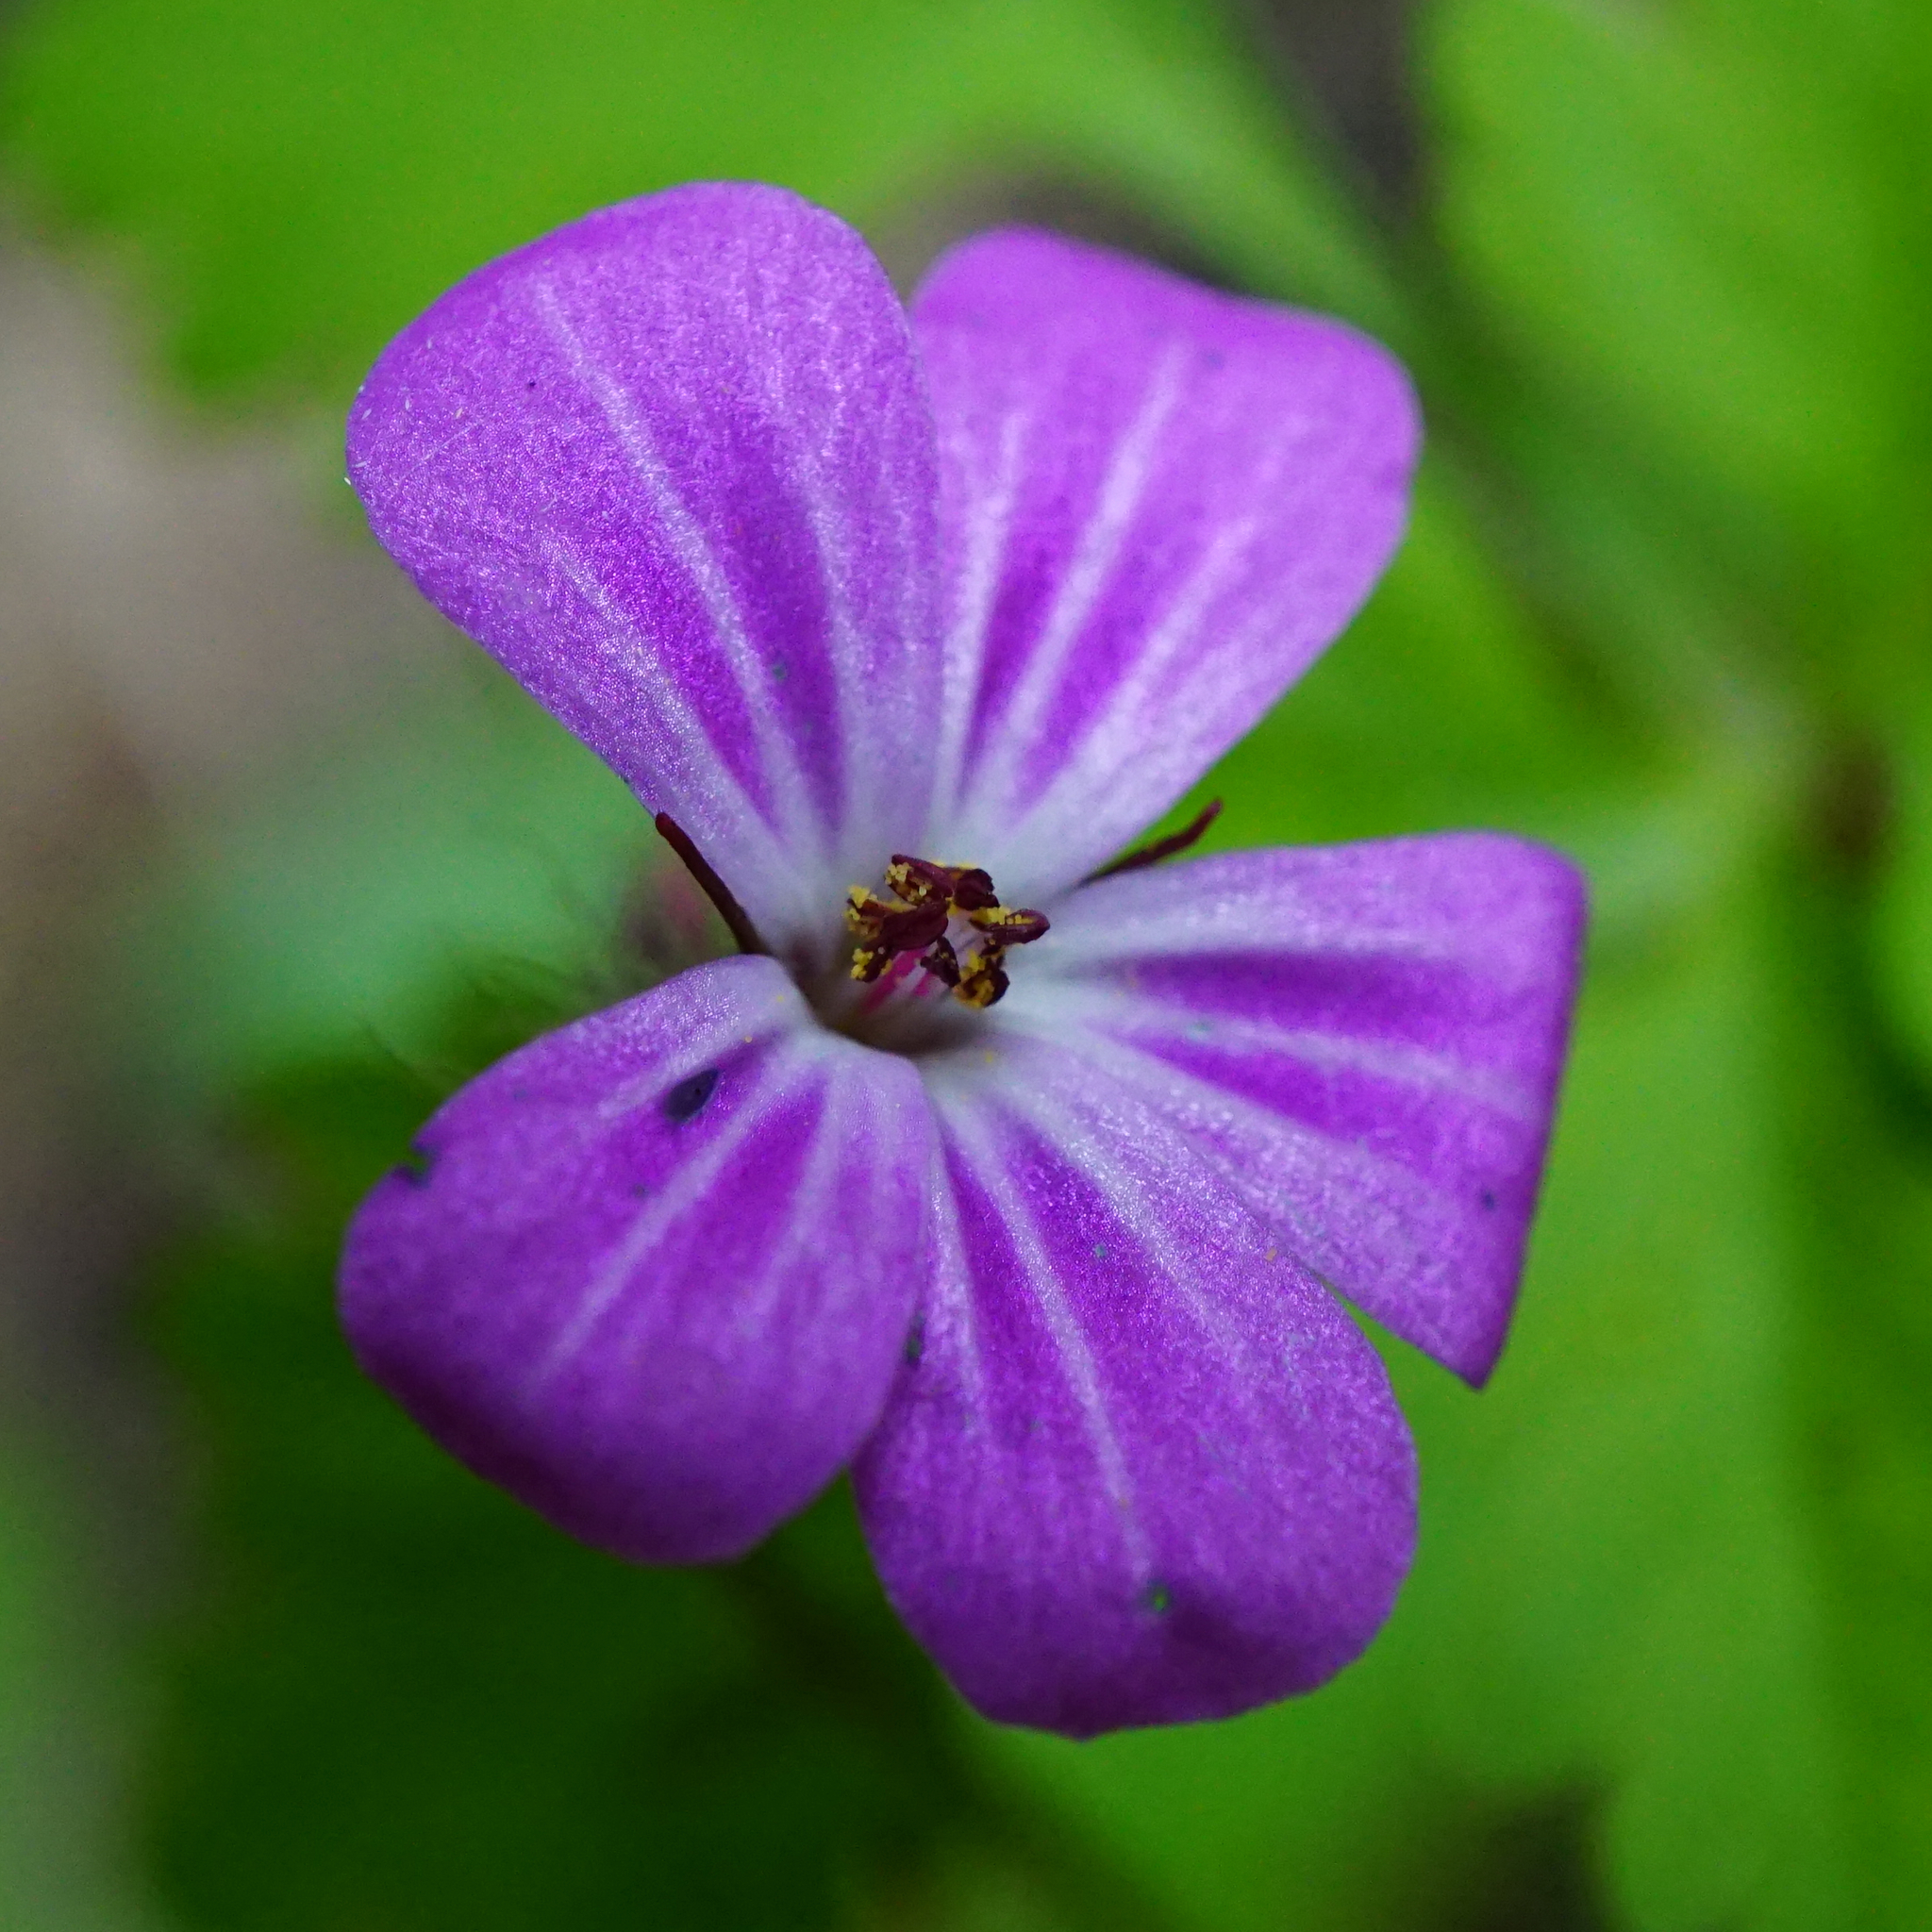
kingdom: Plantae
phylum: Tracheophyta
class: Magnoliopsida
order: Geraniales
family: Geraniaceae
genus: Geranium
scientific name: Geranium robertianum
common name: Herb-robert
